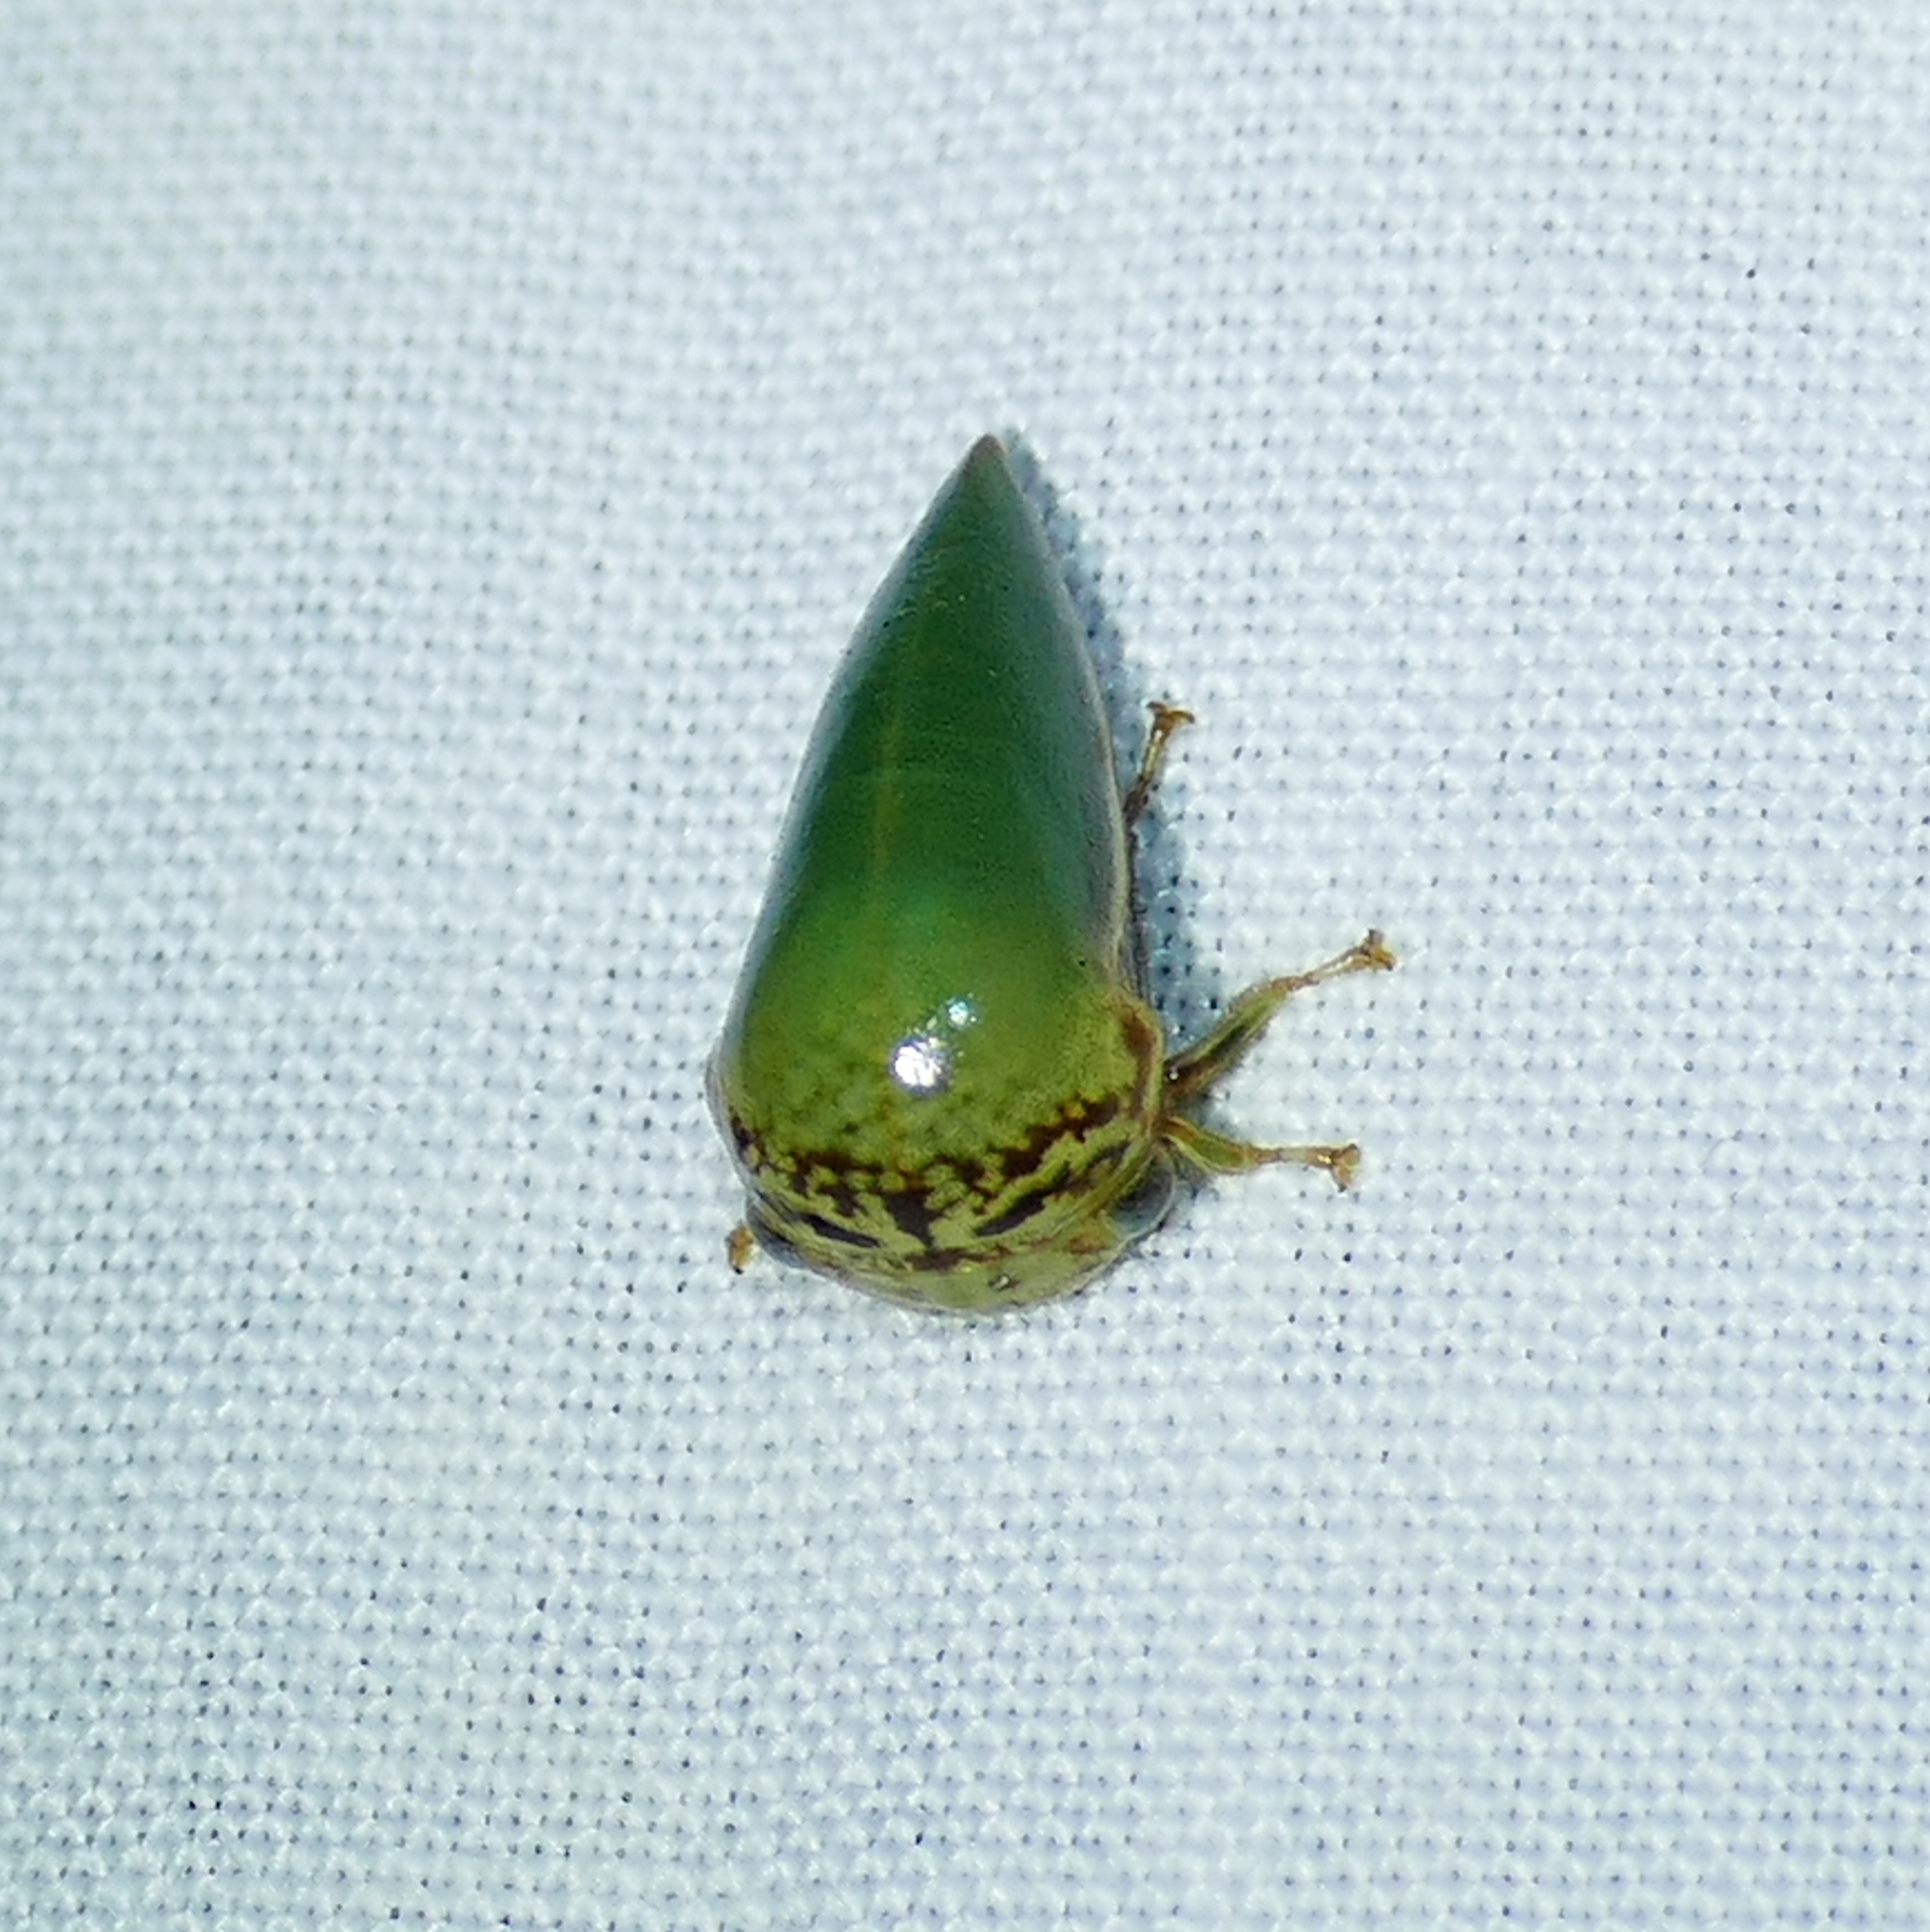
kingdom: Animalia
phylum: Arthropoda
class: Insecta
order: Hemiptera
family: Membracidae
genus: Stictopelta
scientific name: Stictopelta marmorata
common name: Treehopper
